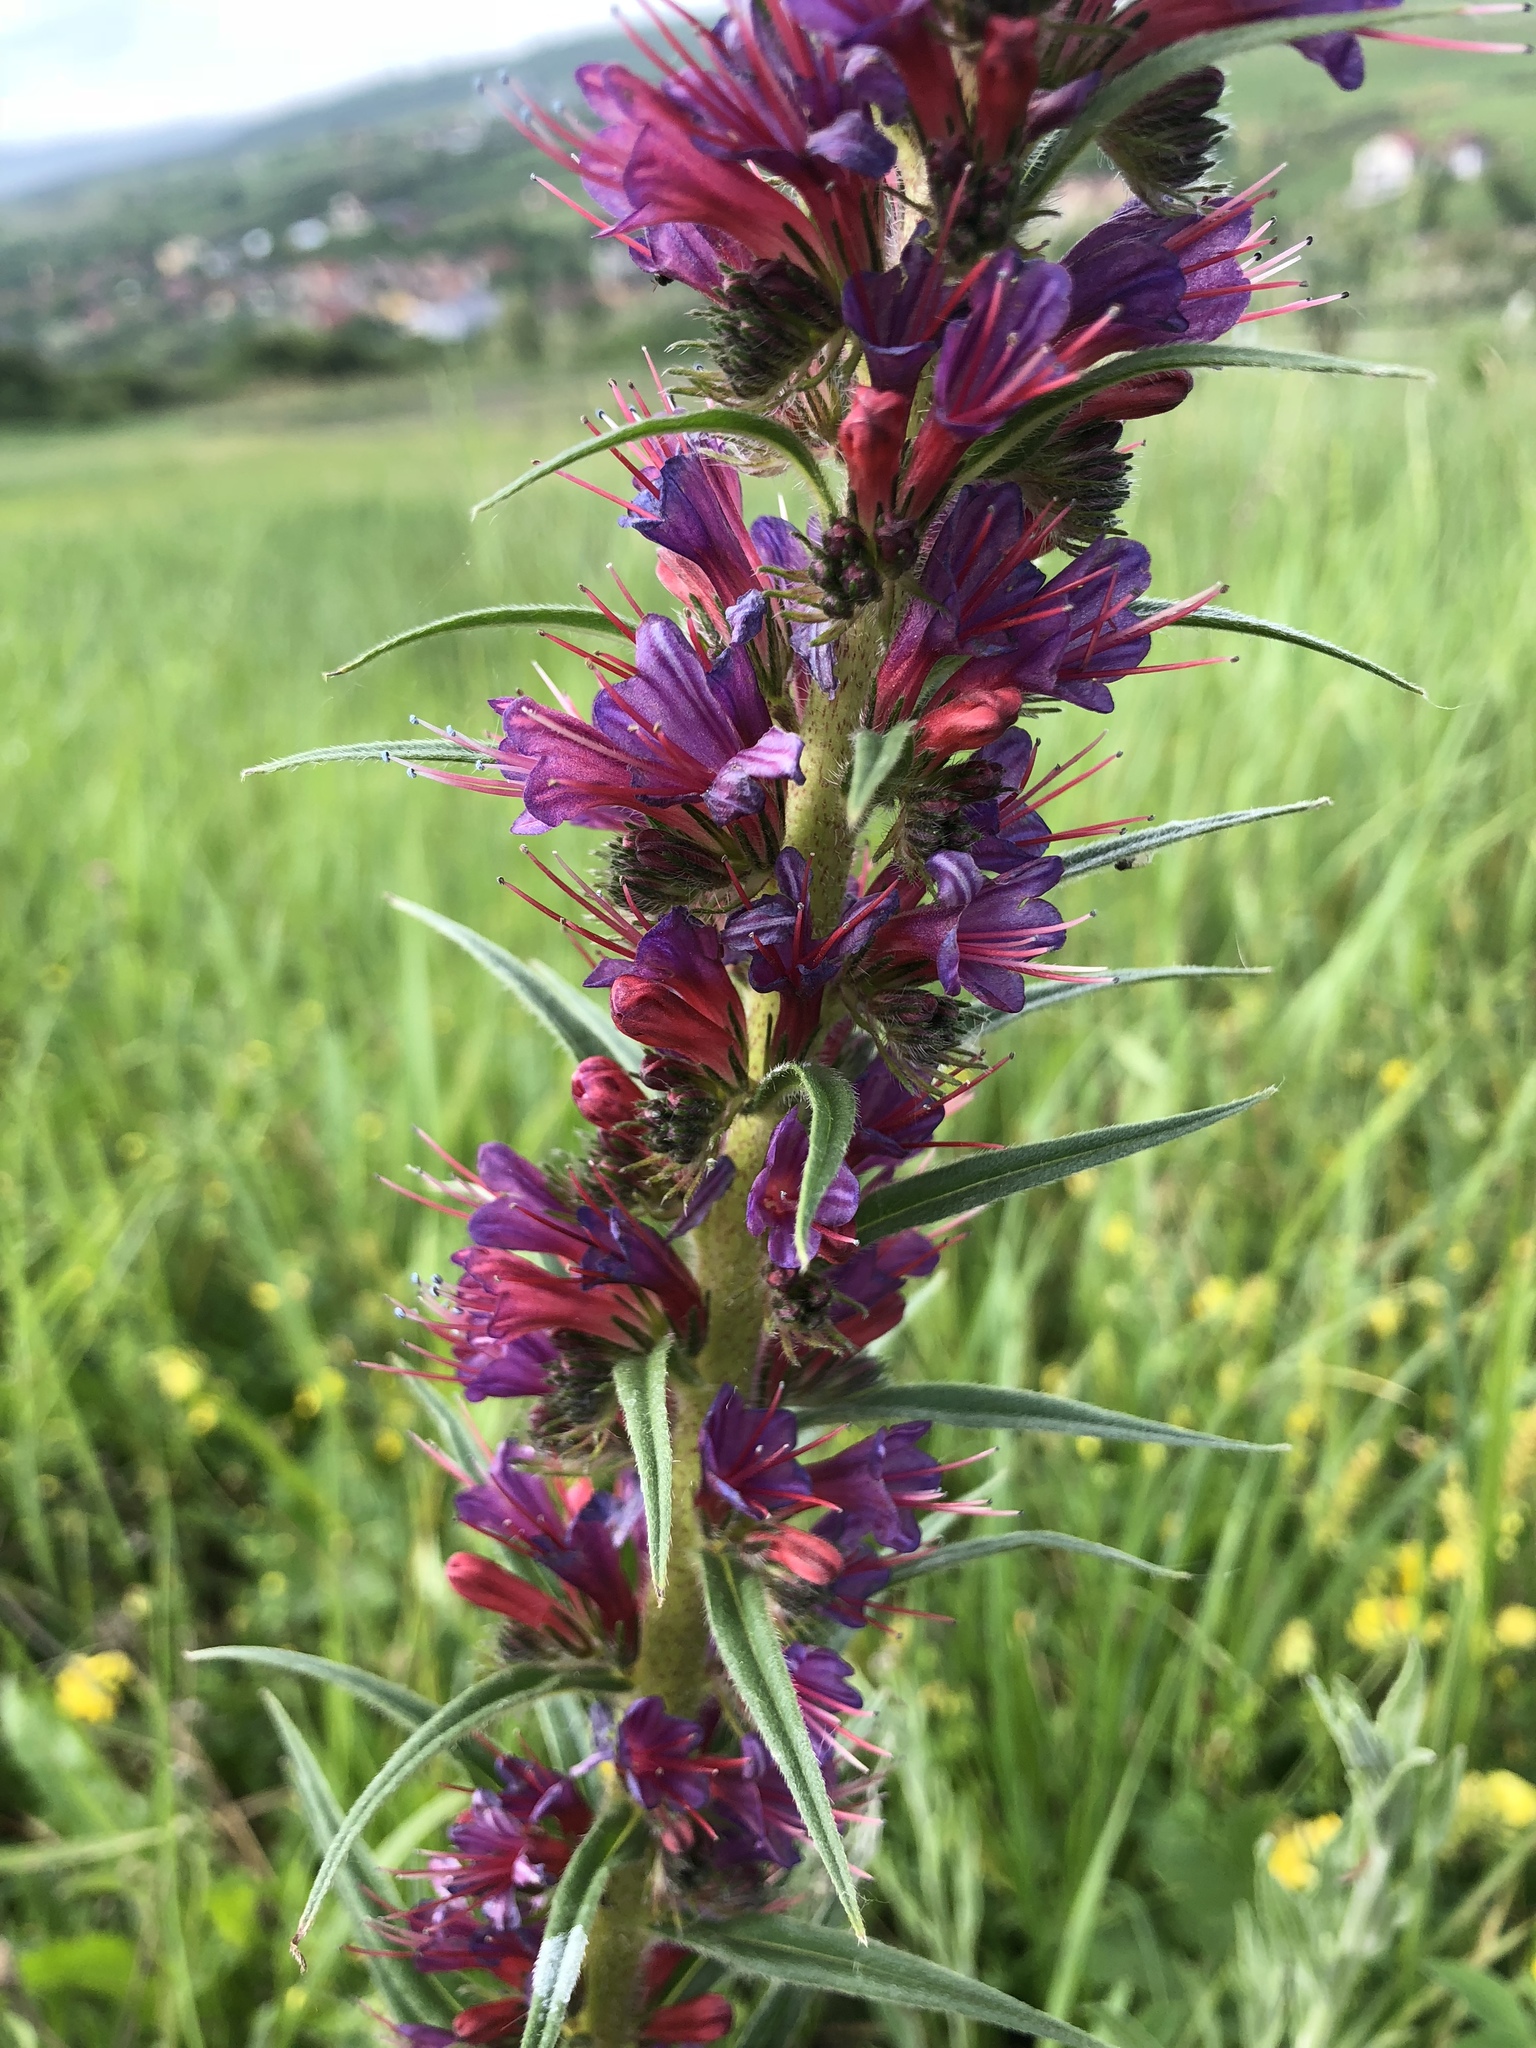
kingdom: Plantae
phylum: Tracheophyta
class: Magnoliopsida
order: Boraginales
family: Boraginaceae
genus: Pontechium
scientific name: Pontechium maculatum
